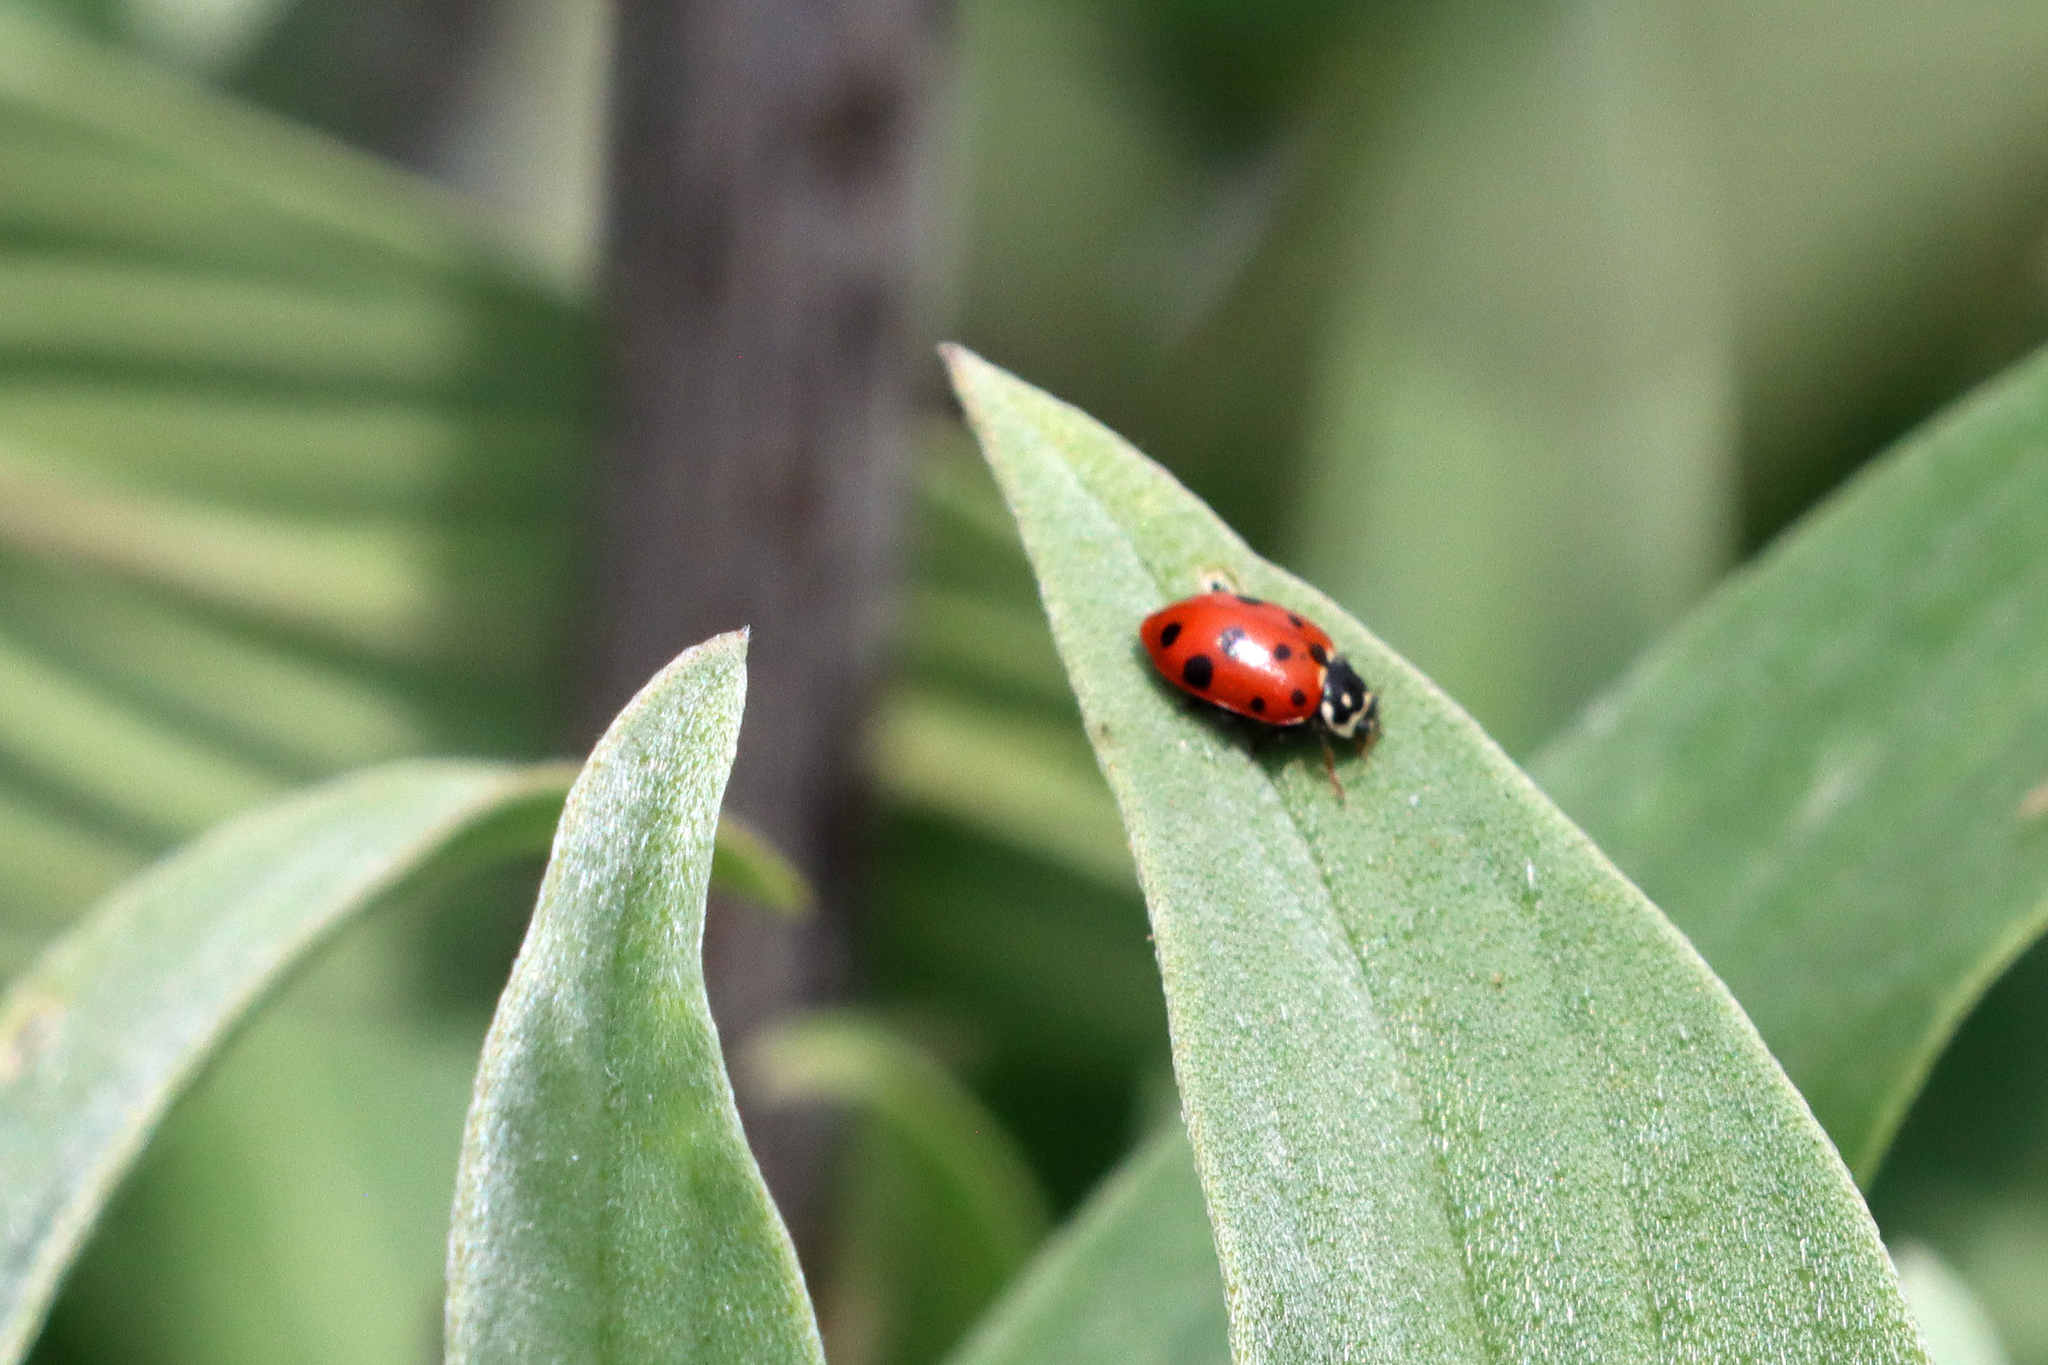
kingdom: Animalia
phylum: Arthropoda
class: Insecta
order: Coleoptera
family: Coccinellidae
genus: Hippodamia
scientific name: Hippodamia variegata
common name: Ladybird beetle
